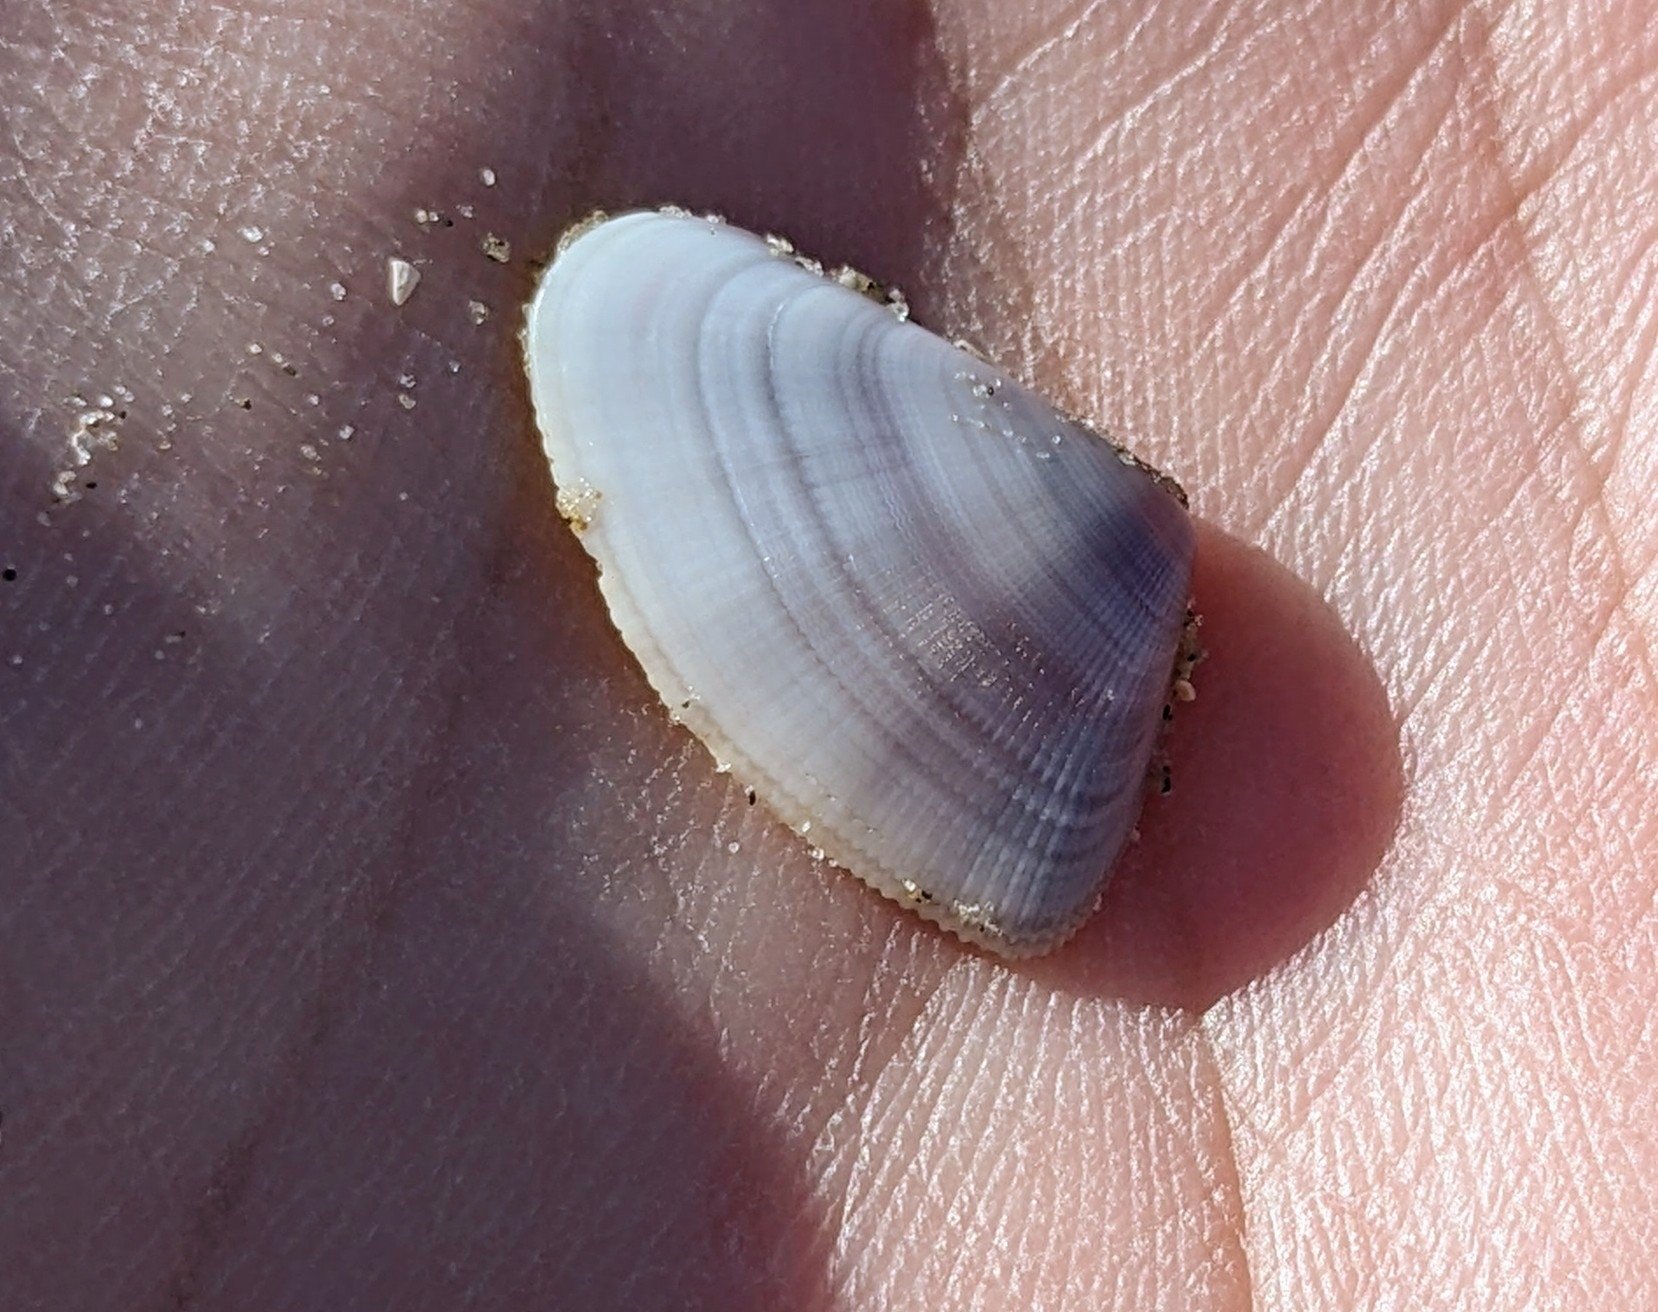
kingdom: Animalia
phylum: Mollusca
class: Bivalvia
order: Cardiida
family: Donacidae
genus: Donax
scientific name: Donax variabilis
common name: Butterfly shell
